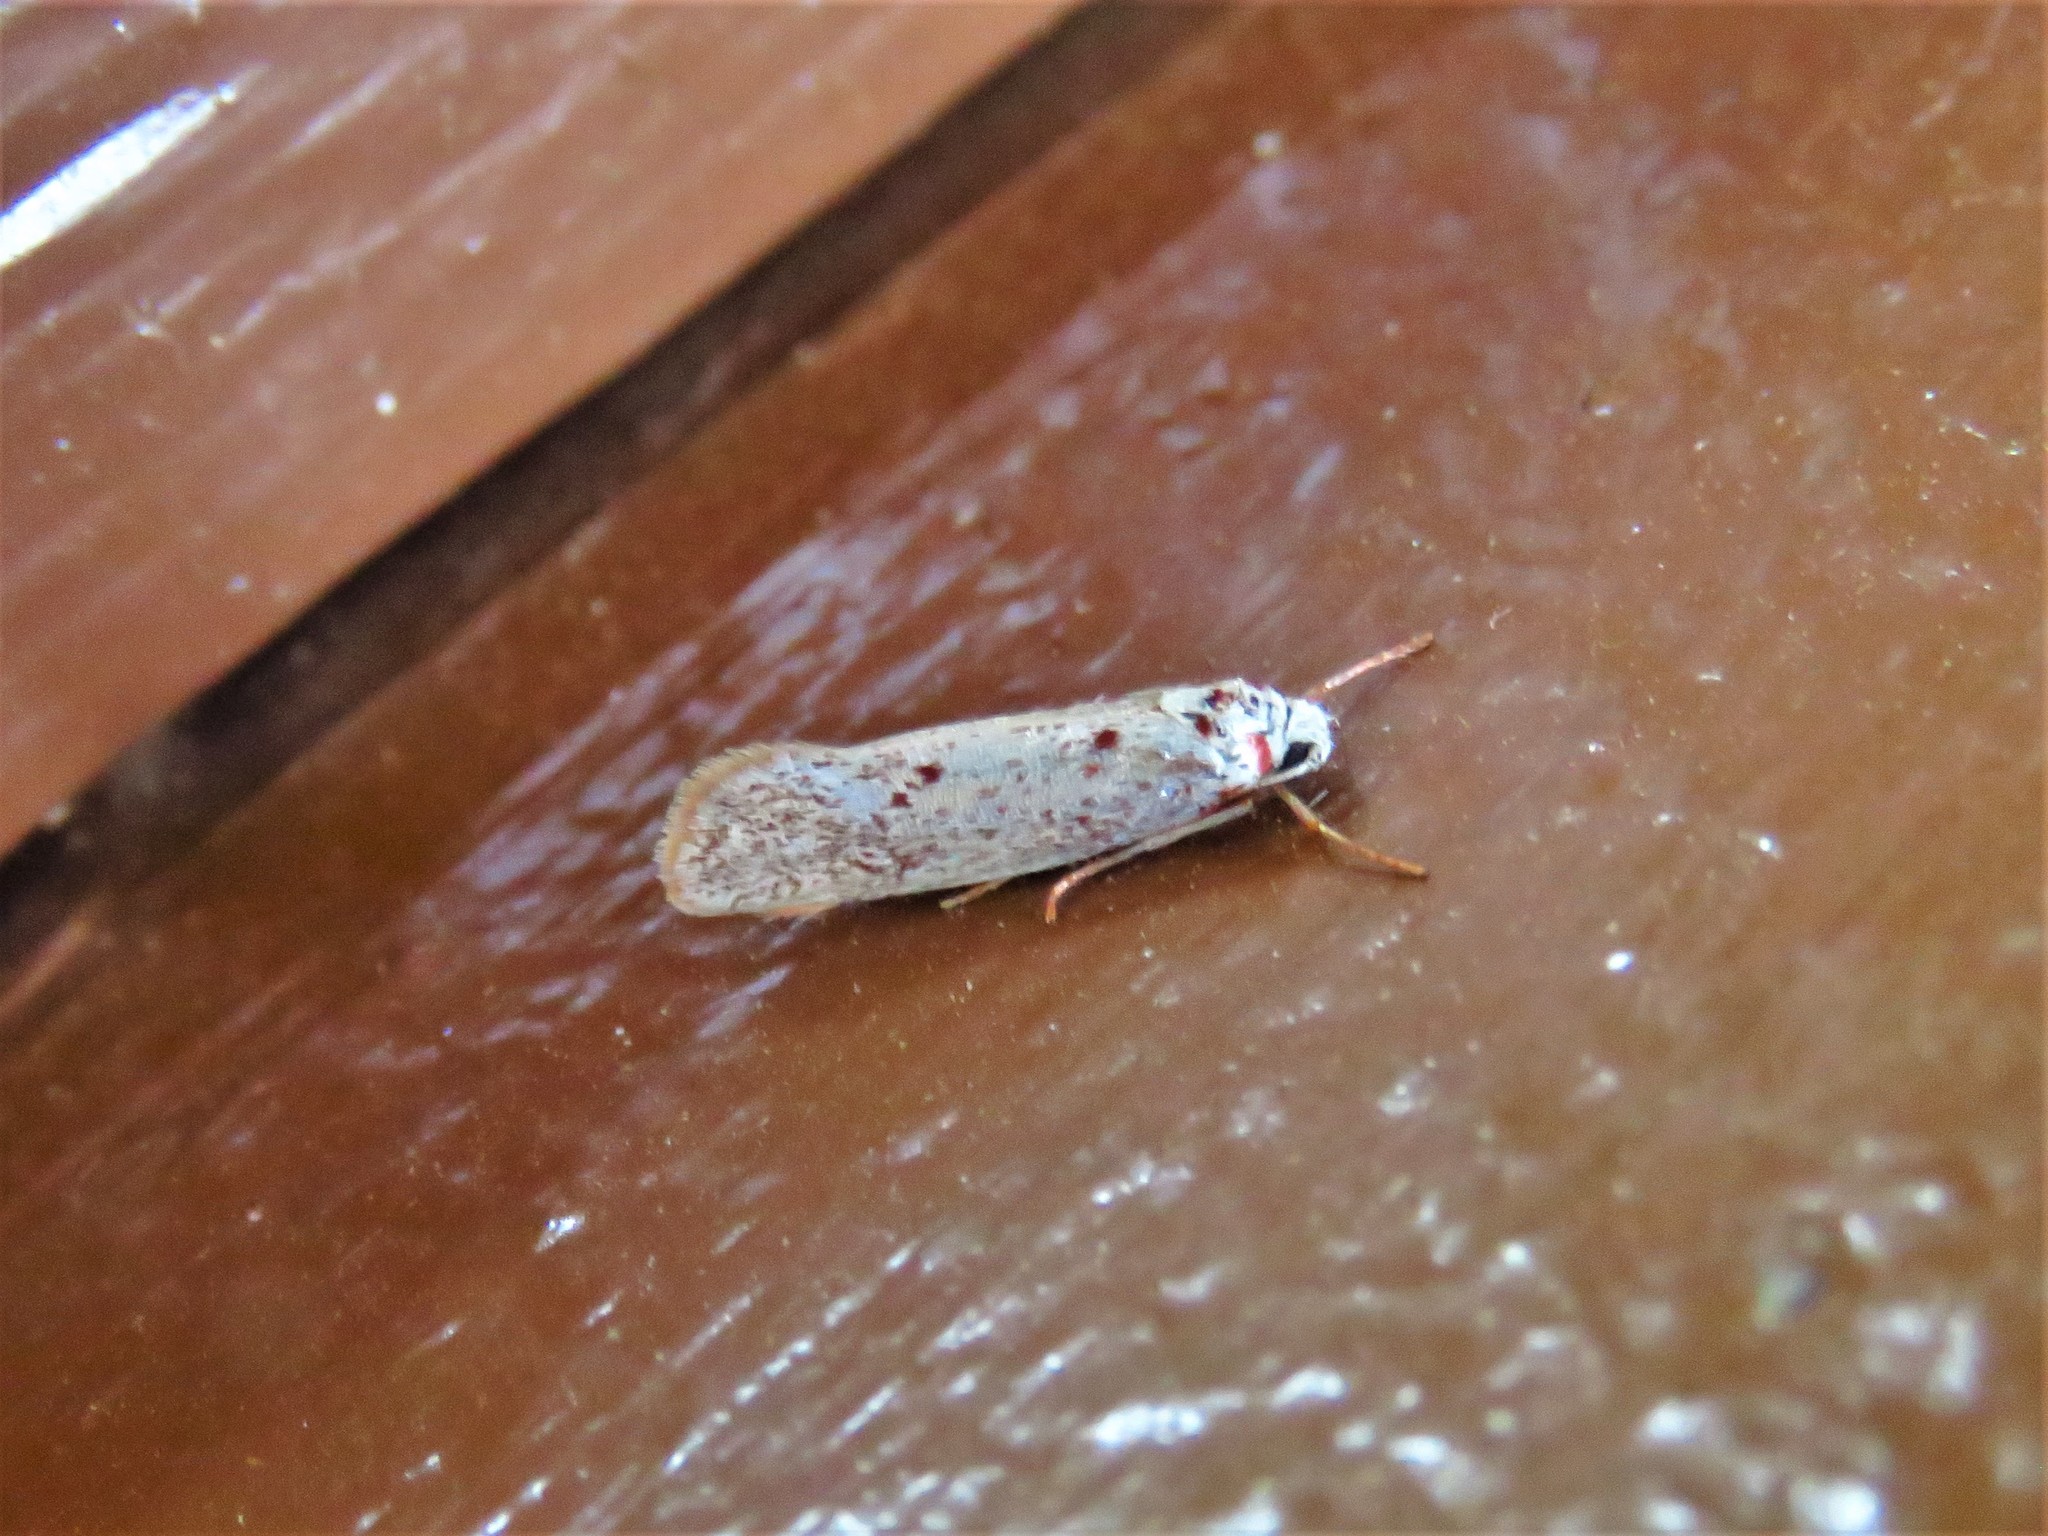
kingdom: Animalia
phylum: Arthropoda
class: Insecta
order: Lepidoptera
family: Lacturidae
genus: Lactura
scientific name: Lactura
